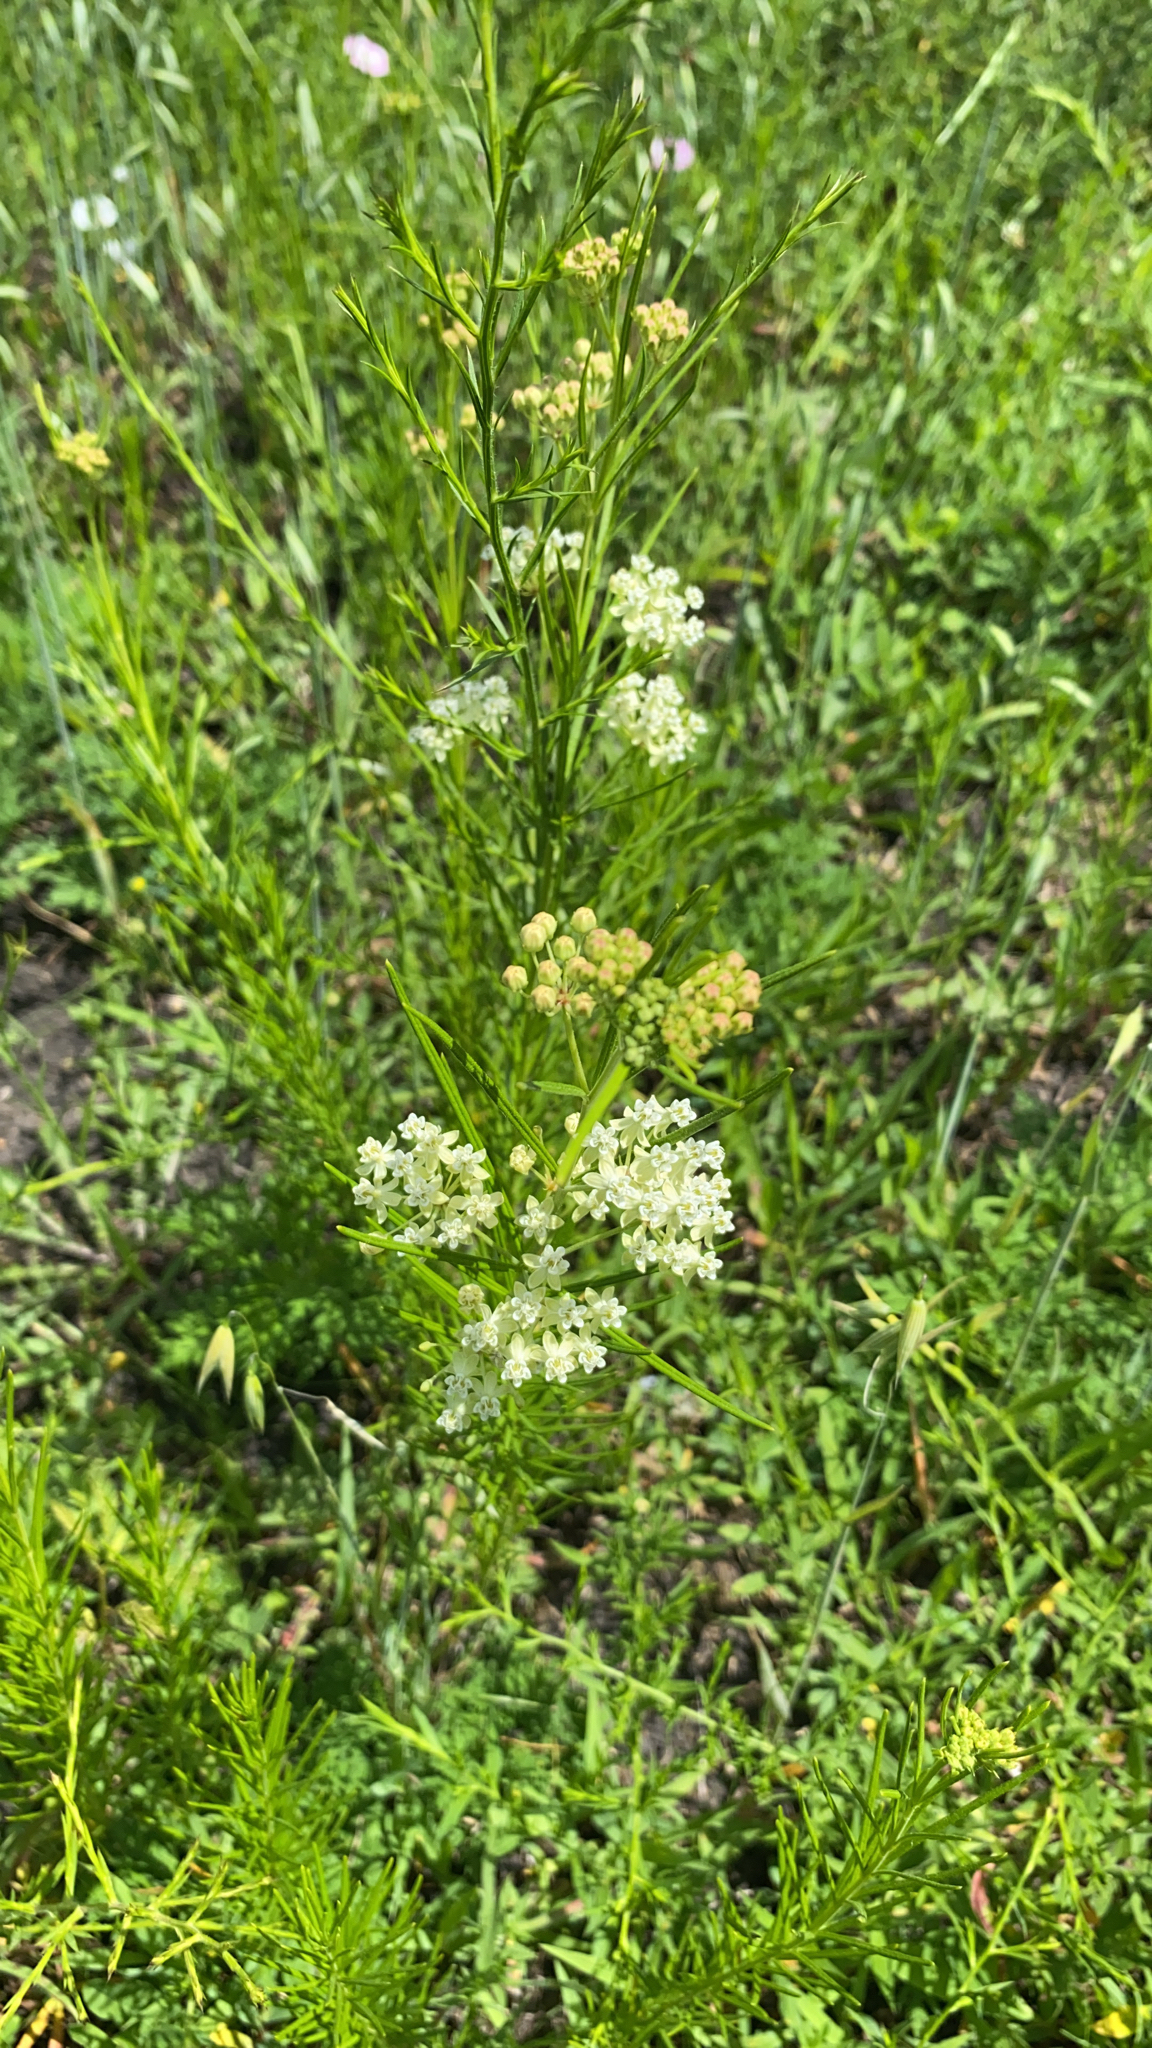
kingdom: Plantae
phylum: Tracheophyta
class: Magnoliopsida
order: Gentianales
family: Apocynaceae
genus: Asclepias
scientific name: Asclepias verticillata
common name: Eastern whorled milkweed
